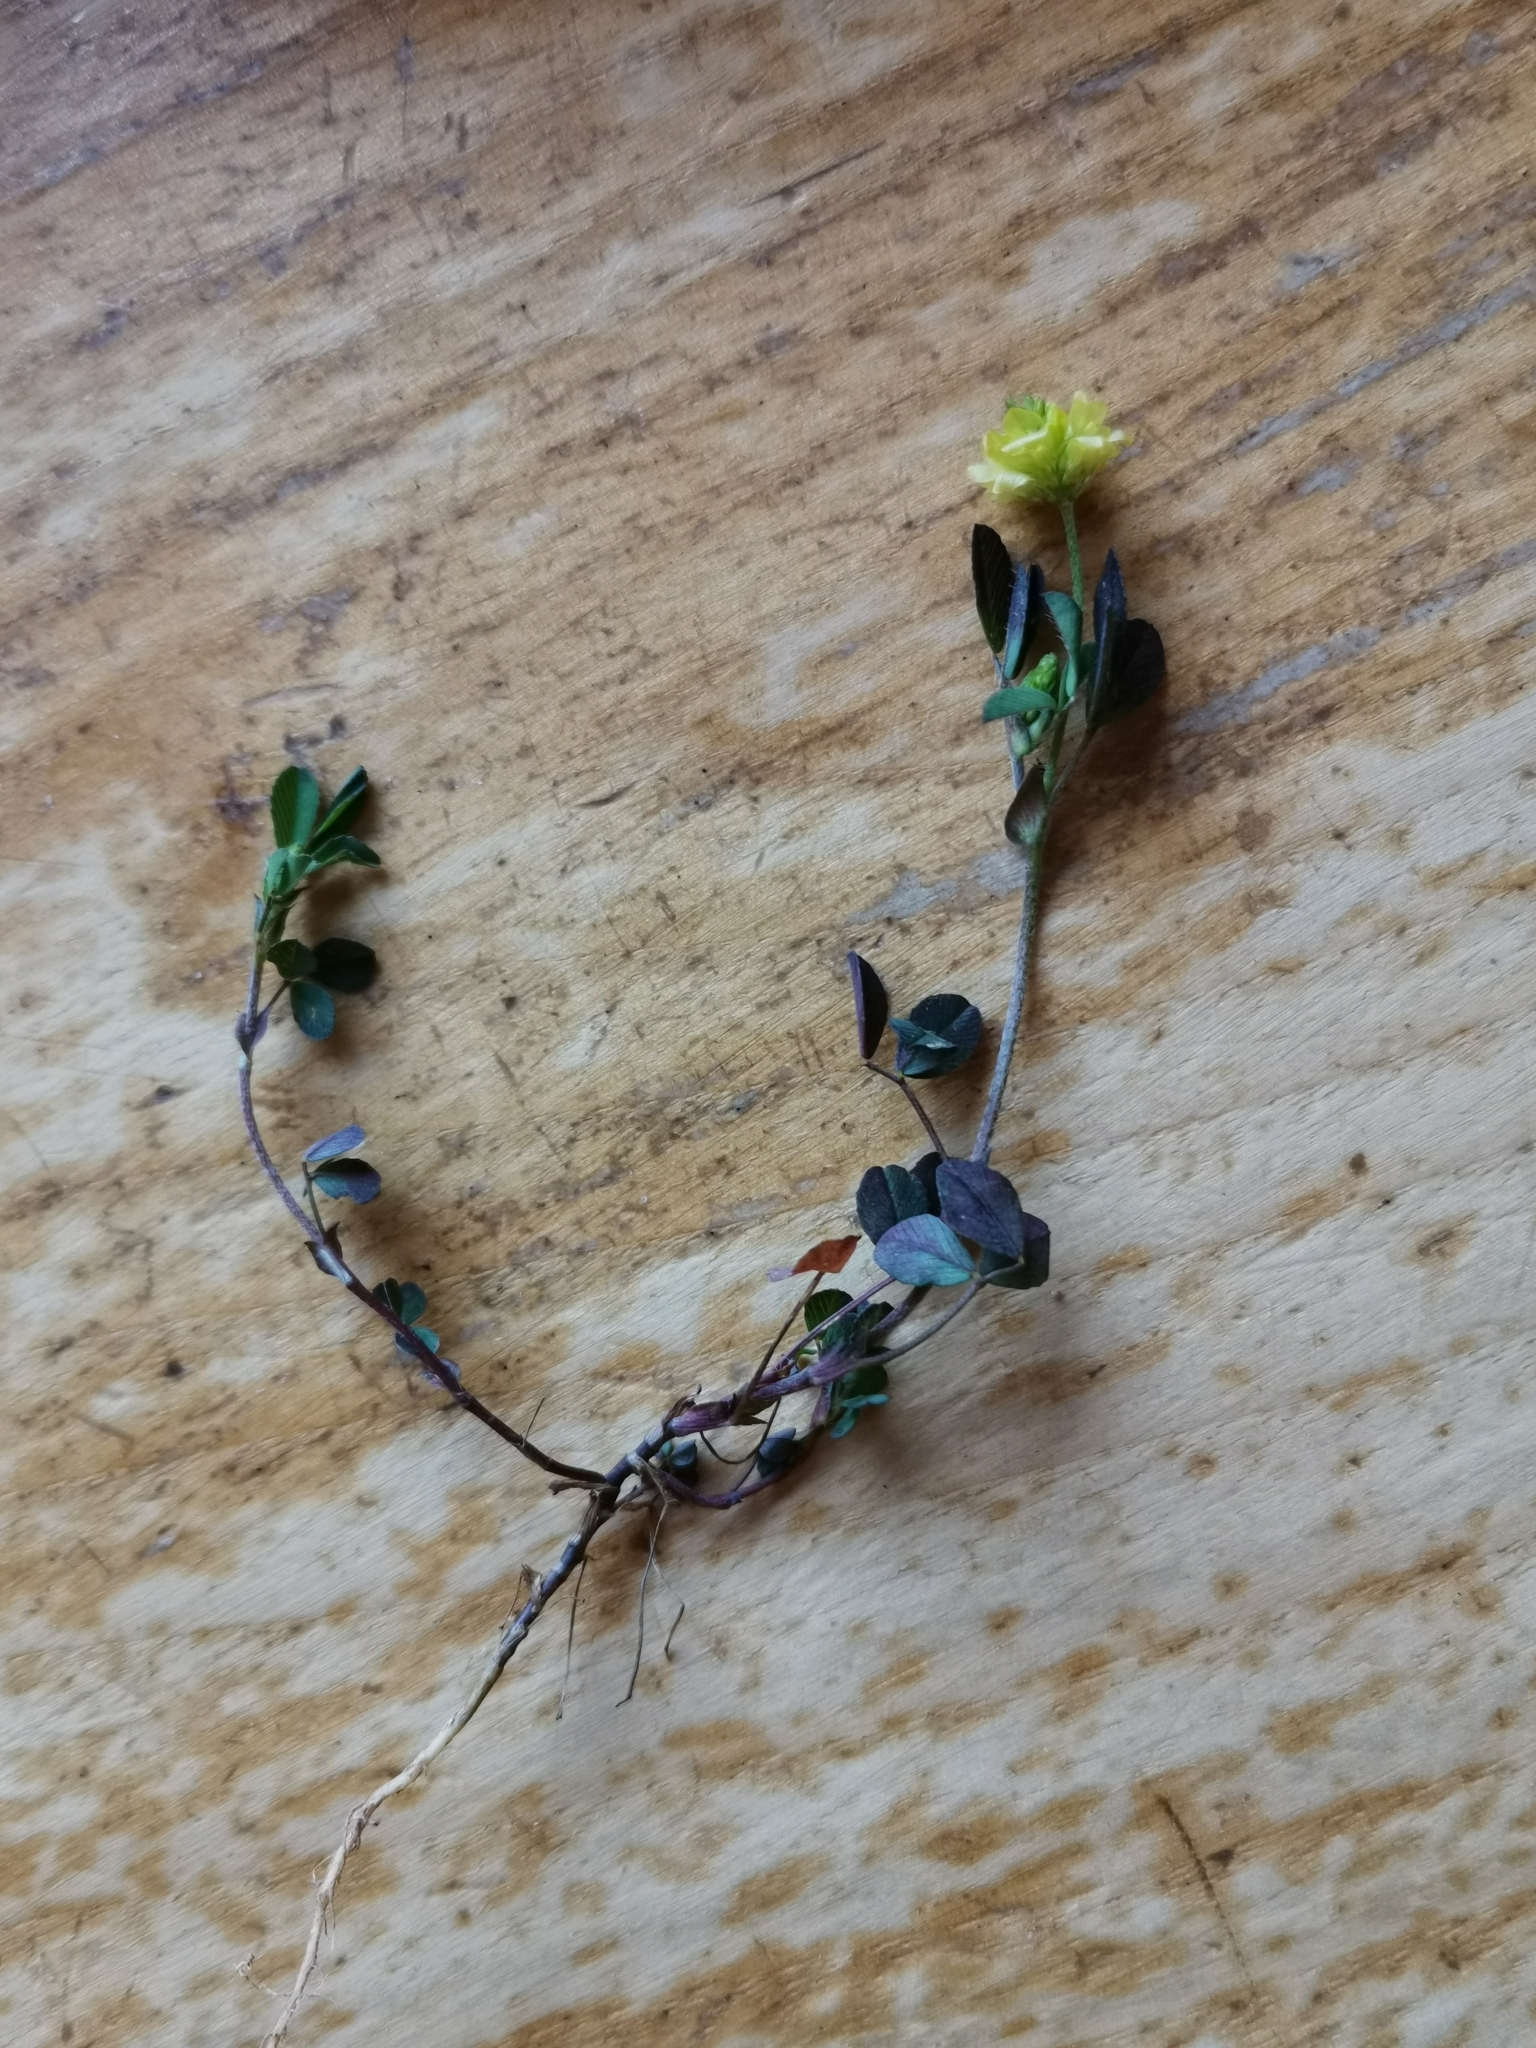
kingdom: Plantae
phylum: Tracheophyta
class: Magnoliopsida
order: Fabales
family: Fabaceae
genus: Trifolium
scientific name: Trifolium campestre
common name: Field clover
